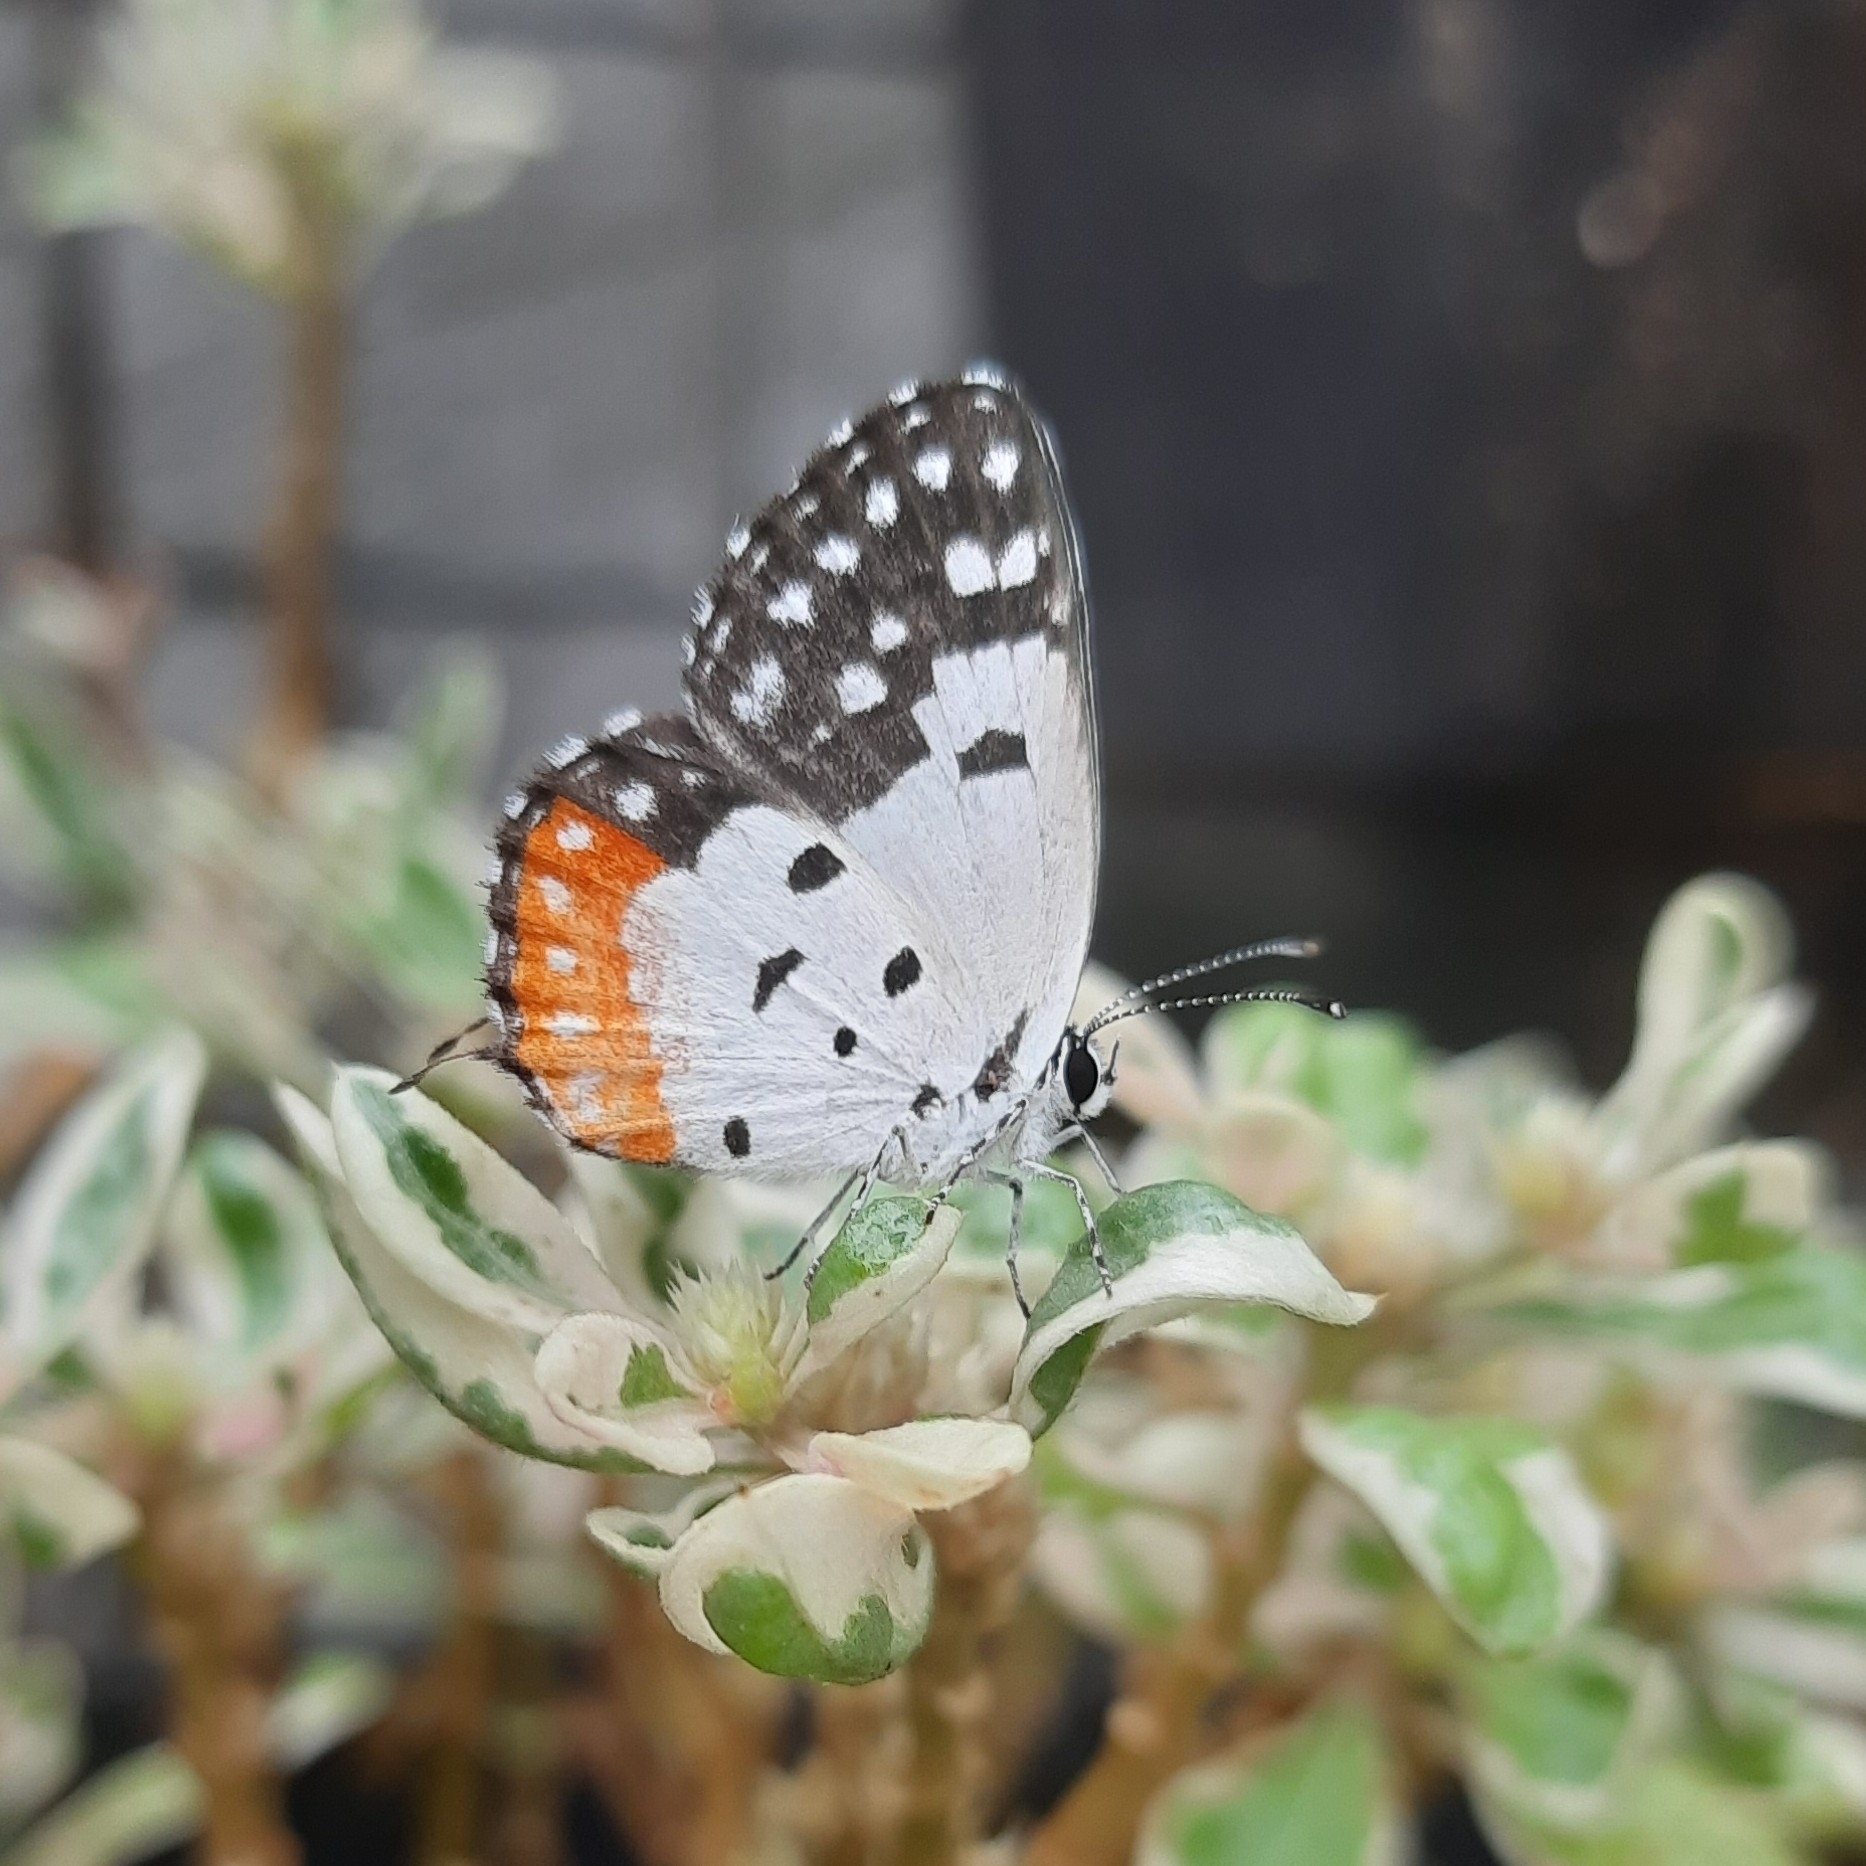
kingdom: Animalia
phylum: Arthropoda
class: Insecta
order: Lepidoptera
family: Lycaenidae
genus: Talicada
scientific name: Talicada nyseus
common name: Red pierrot
